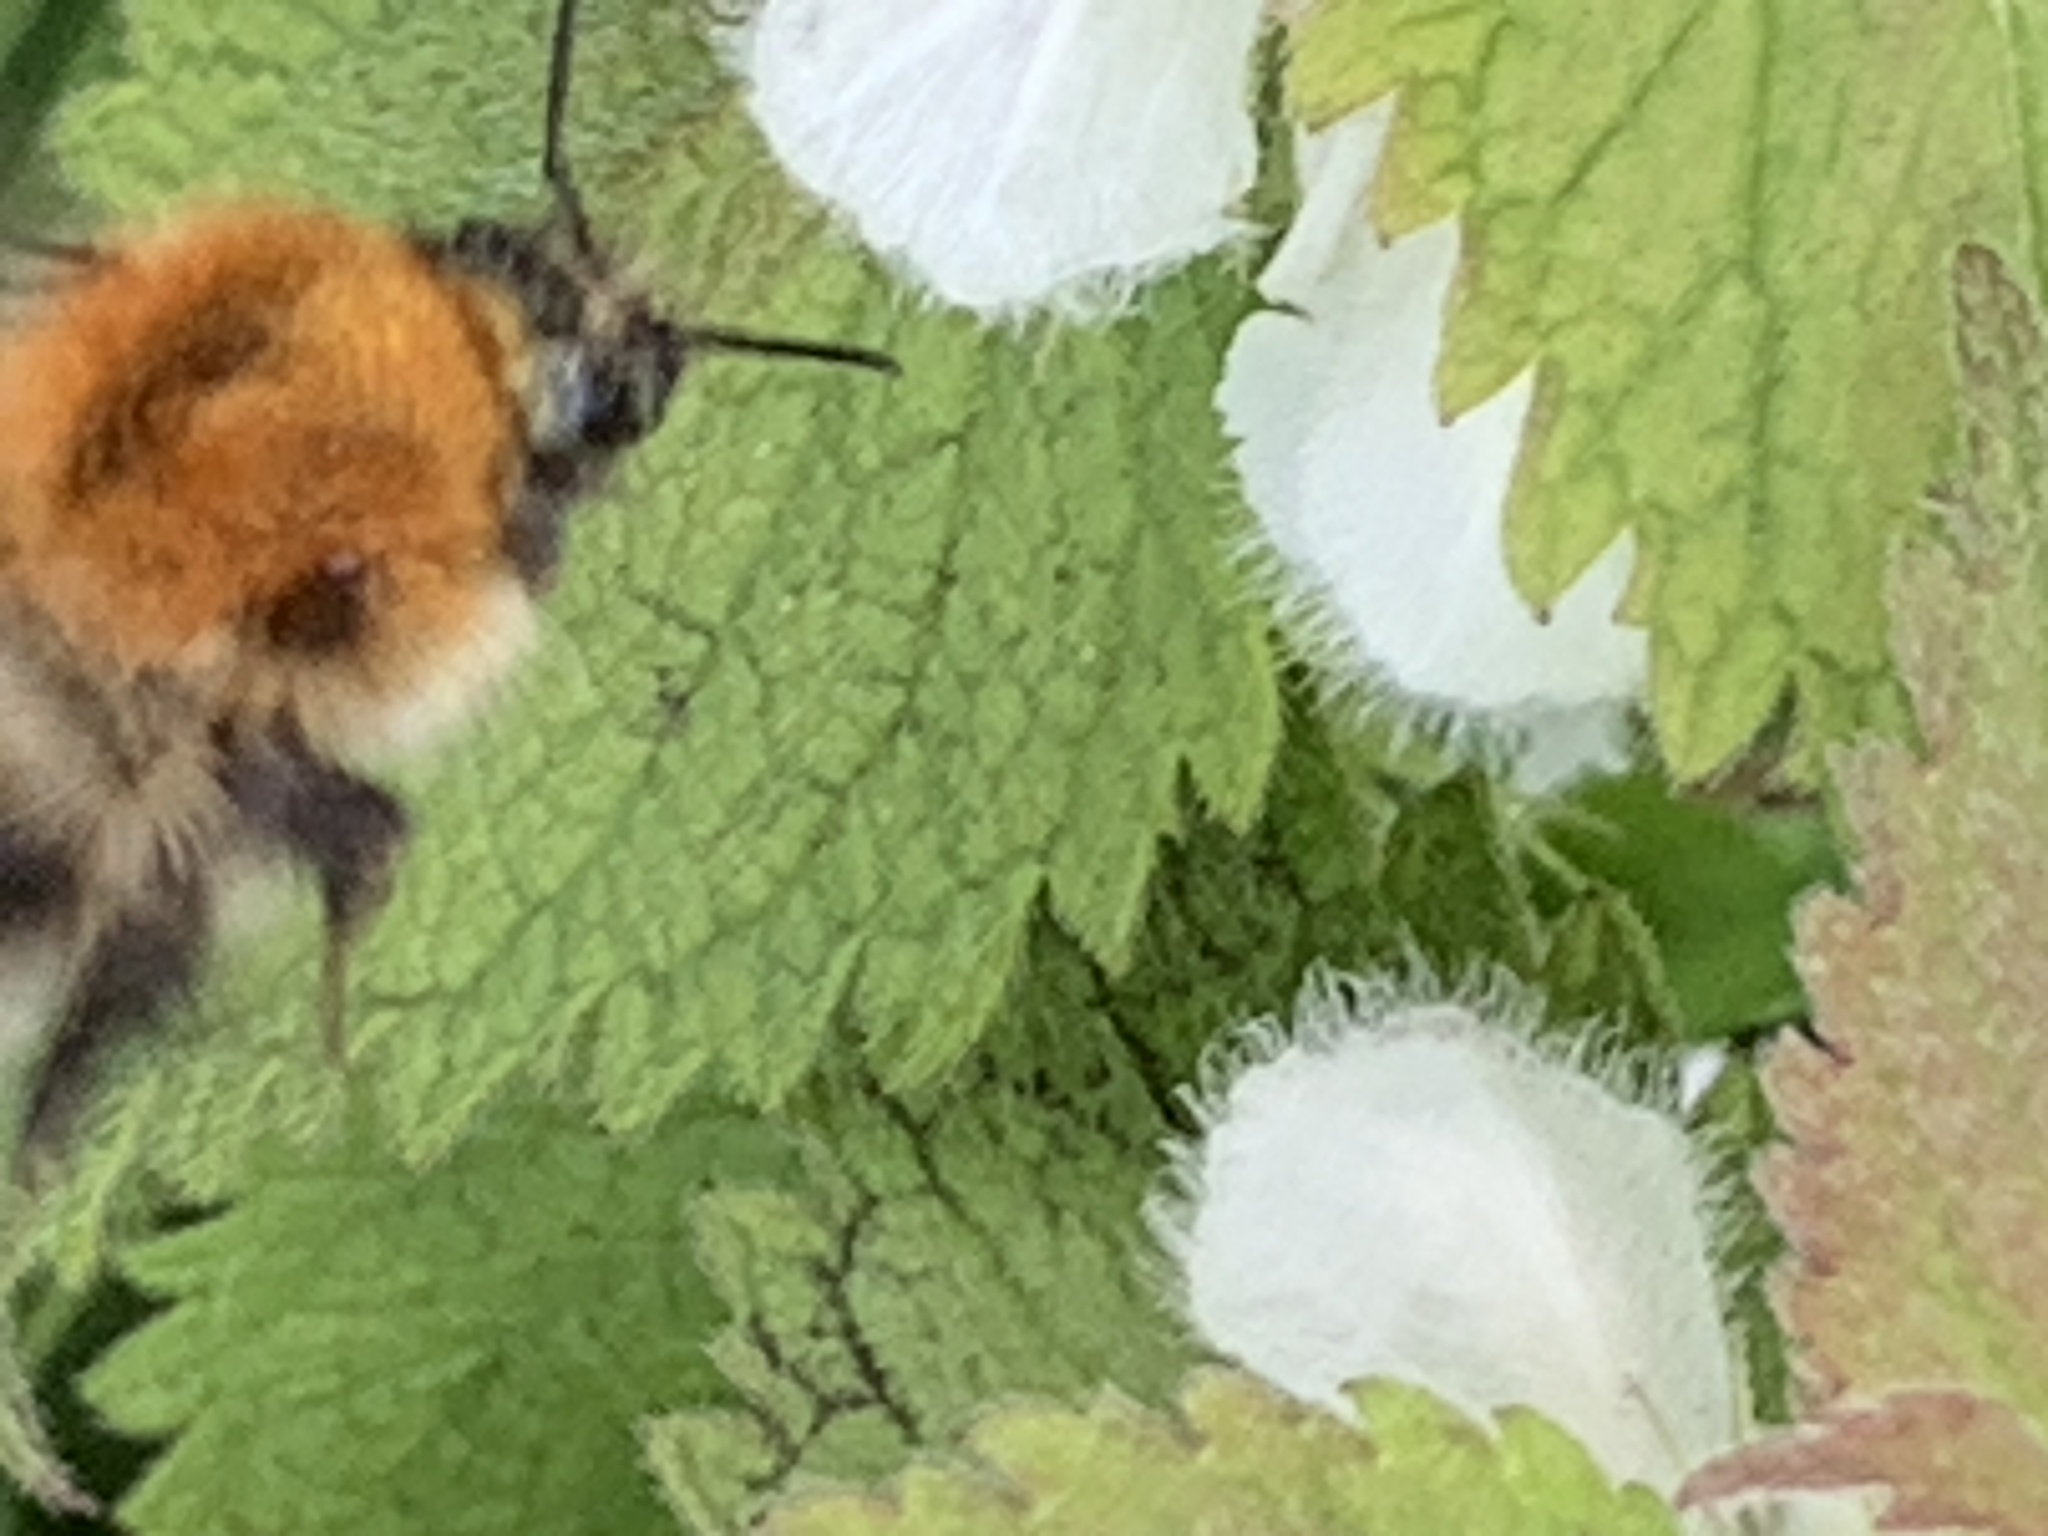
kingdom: Animalia
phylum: Arthropoda
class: Insecta
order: Hymenoptera
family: Apidae
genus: Bombus
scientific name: Bombus pascuorum
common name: Common carder bee
